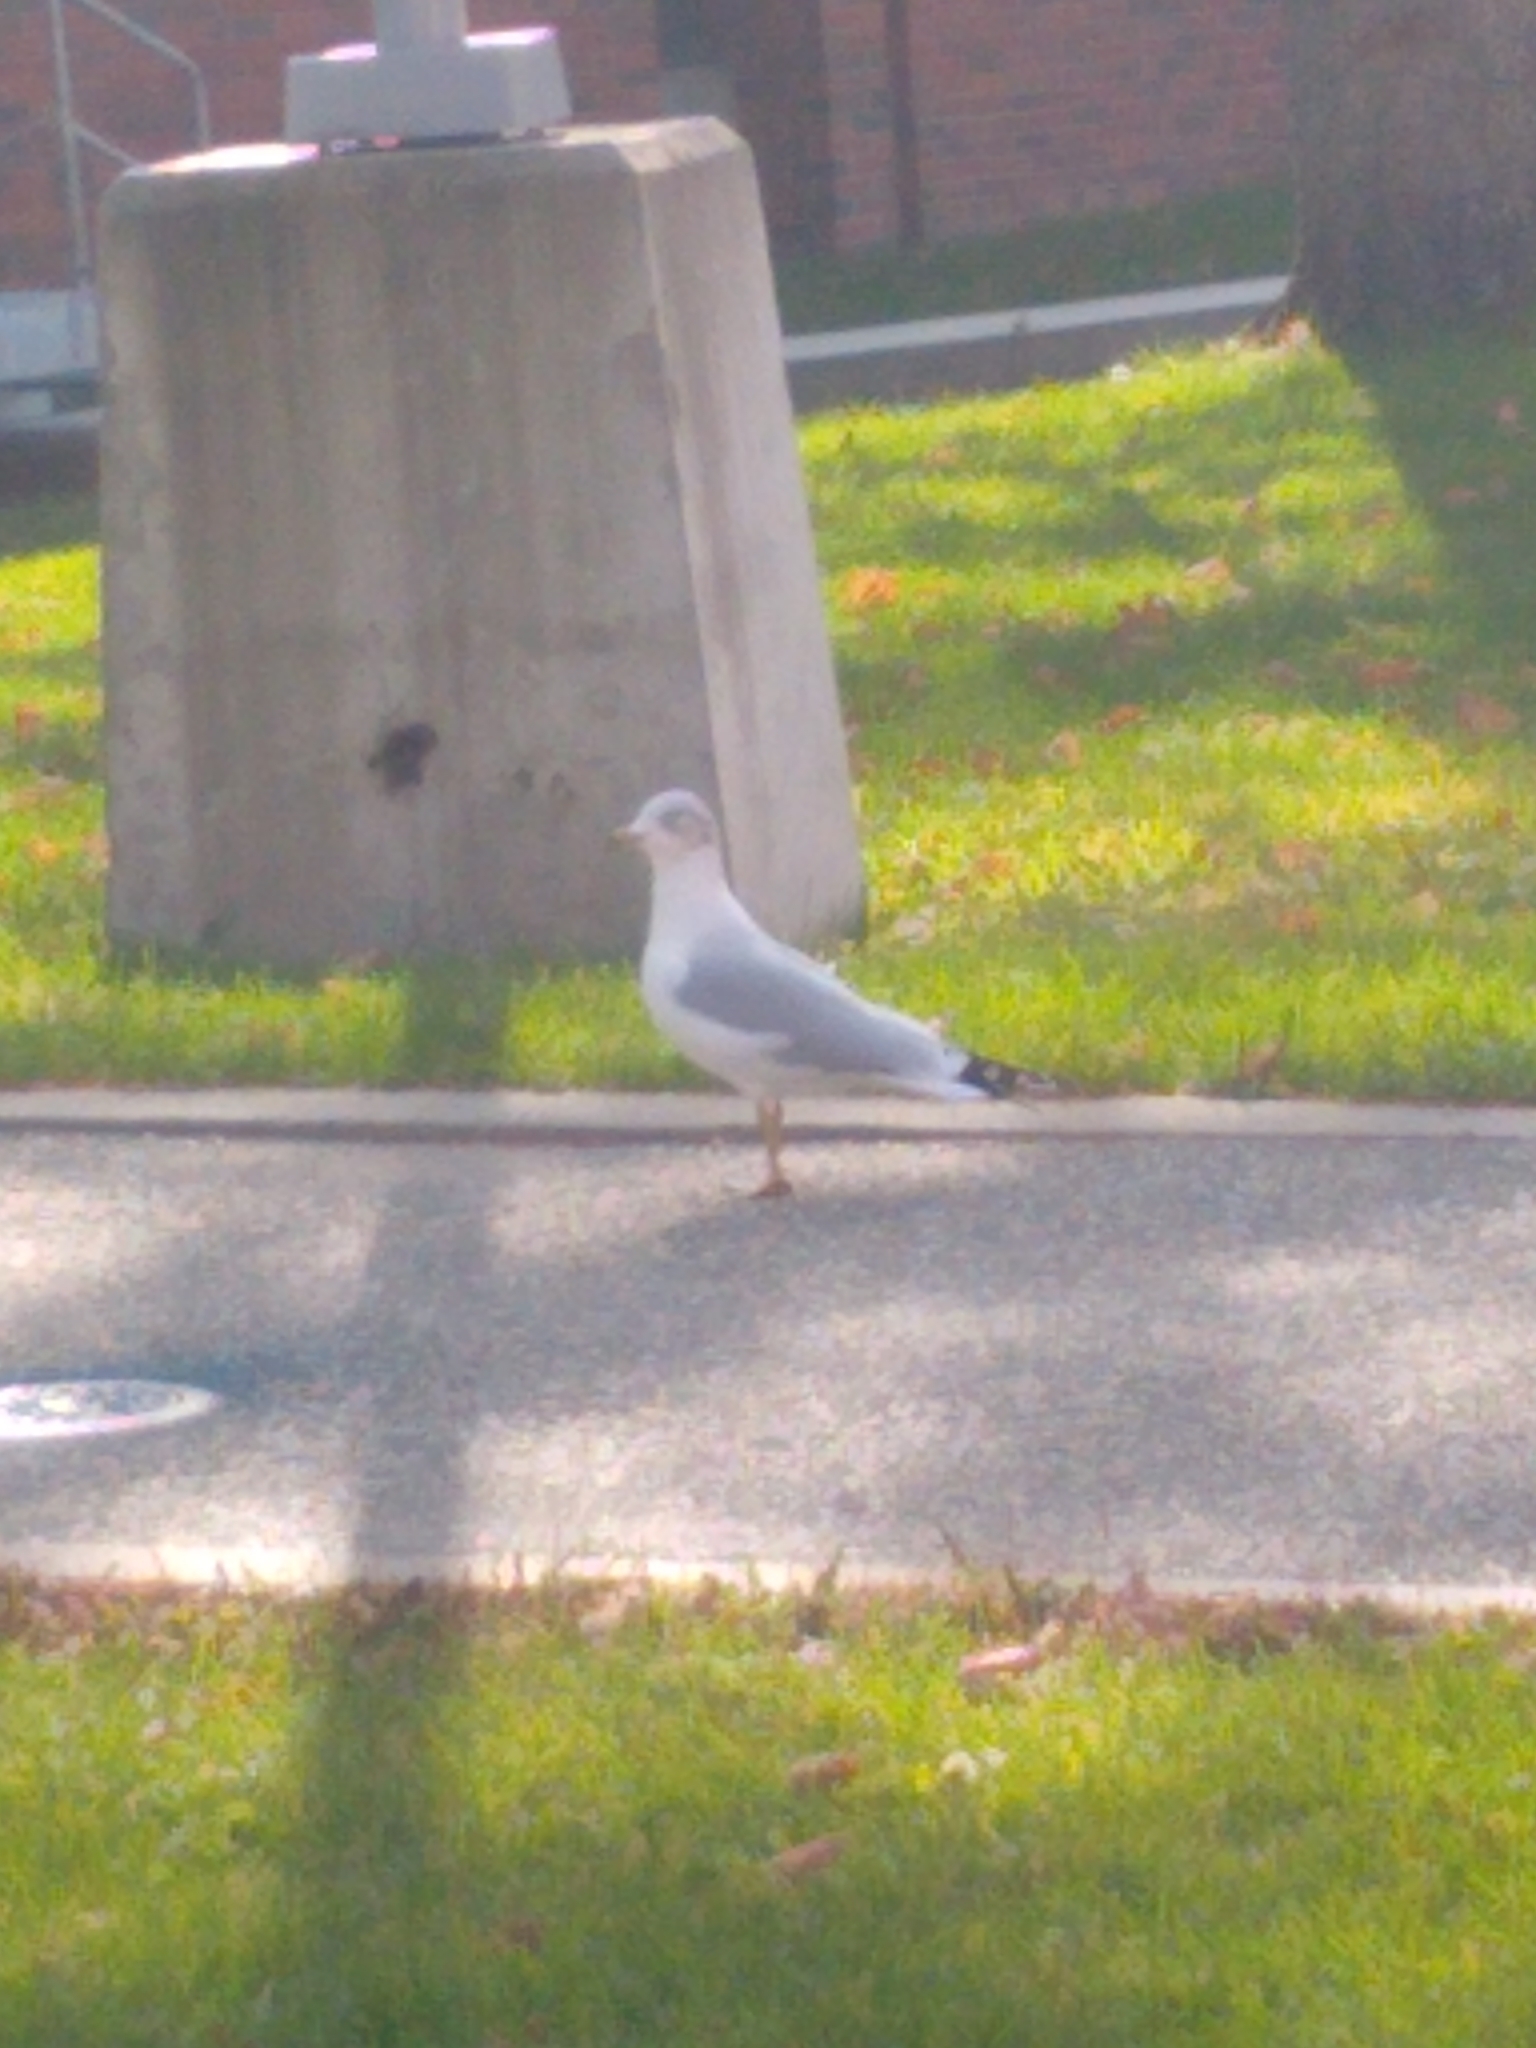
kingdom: Animalia
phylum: Chordata
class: Aves
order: Charadriiformes
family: Laridae
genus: Larus
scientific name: Larus delawarensis
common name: Ring-billed gull
